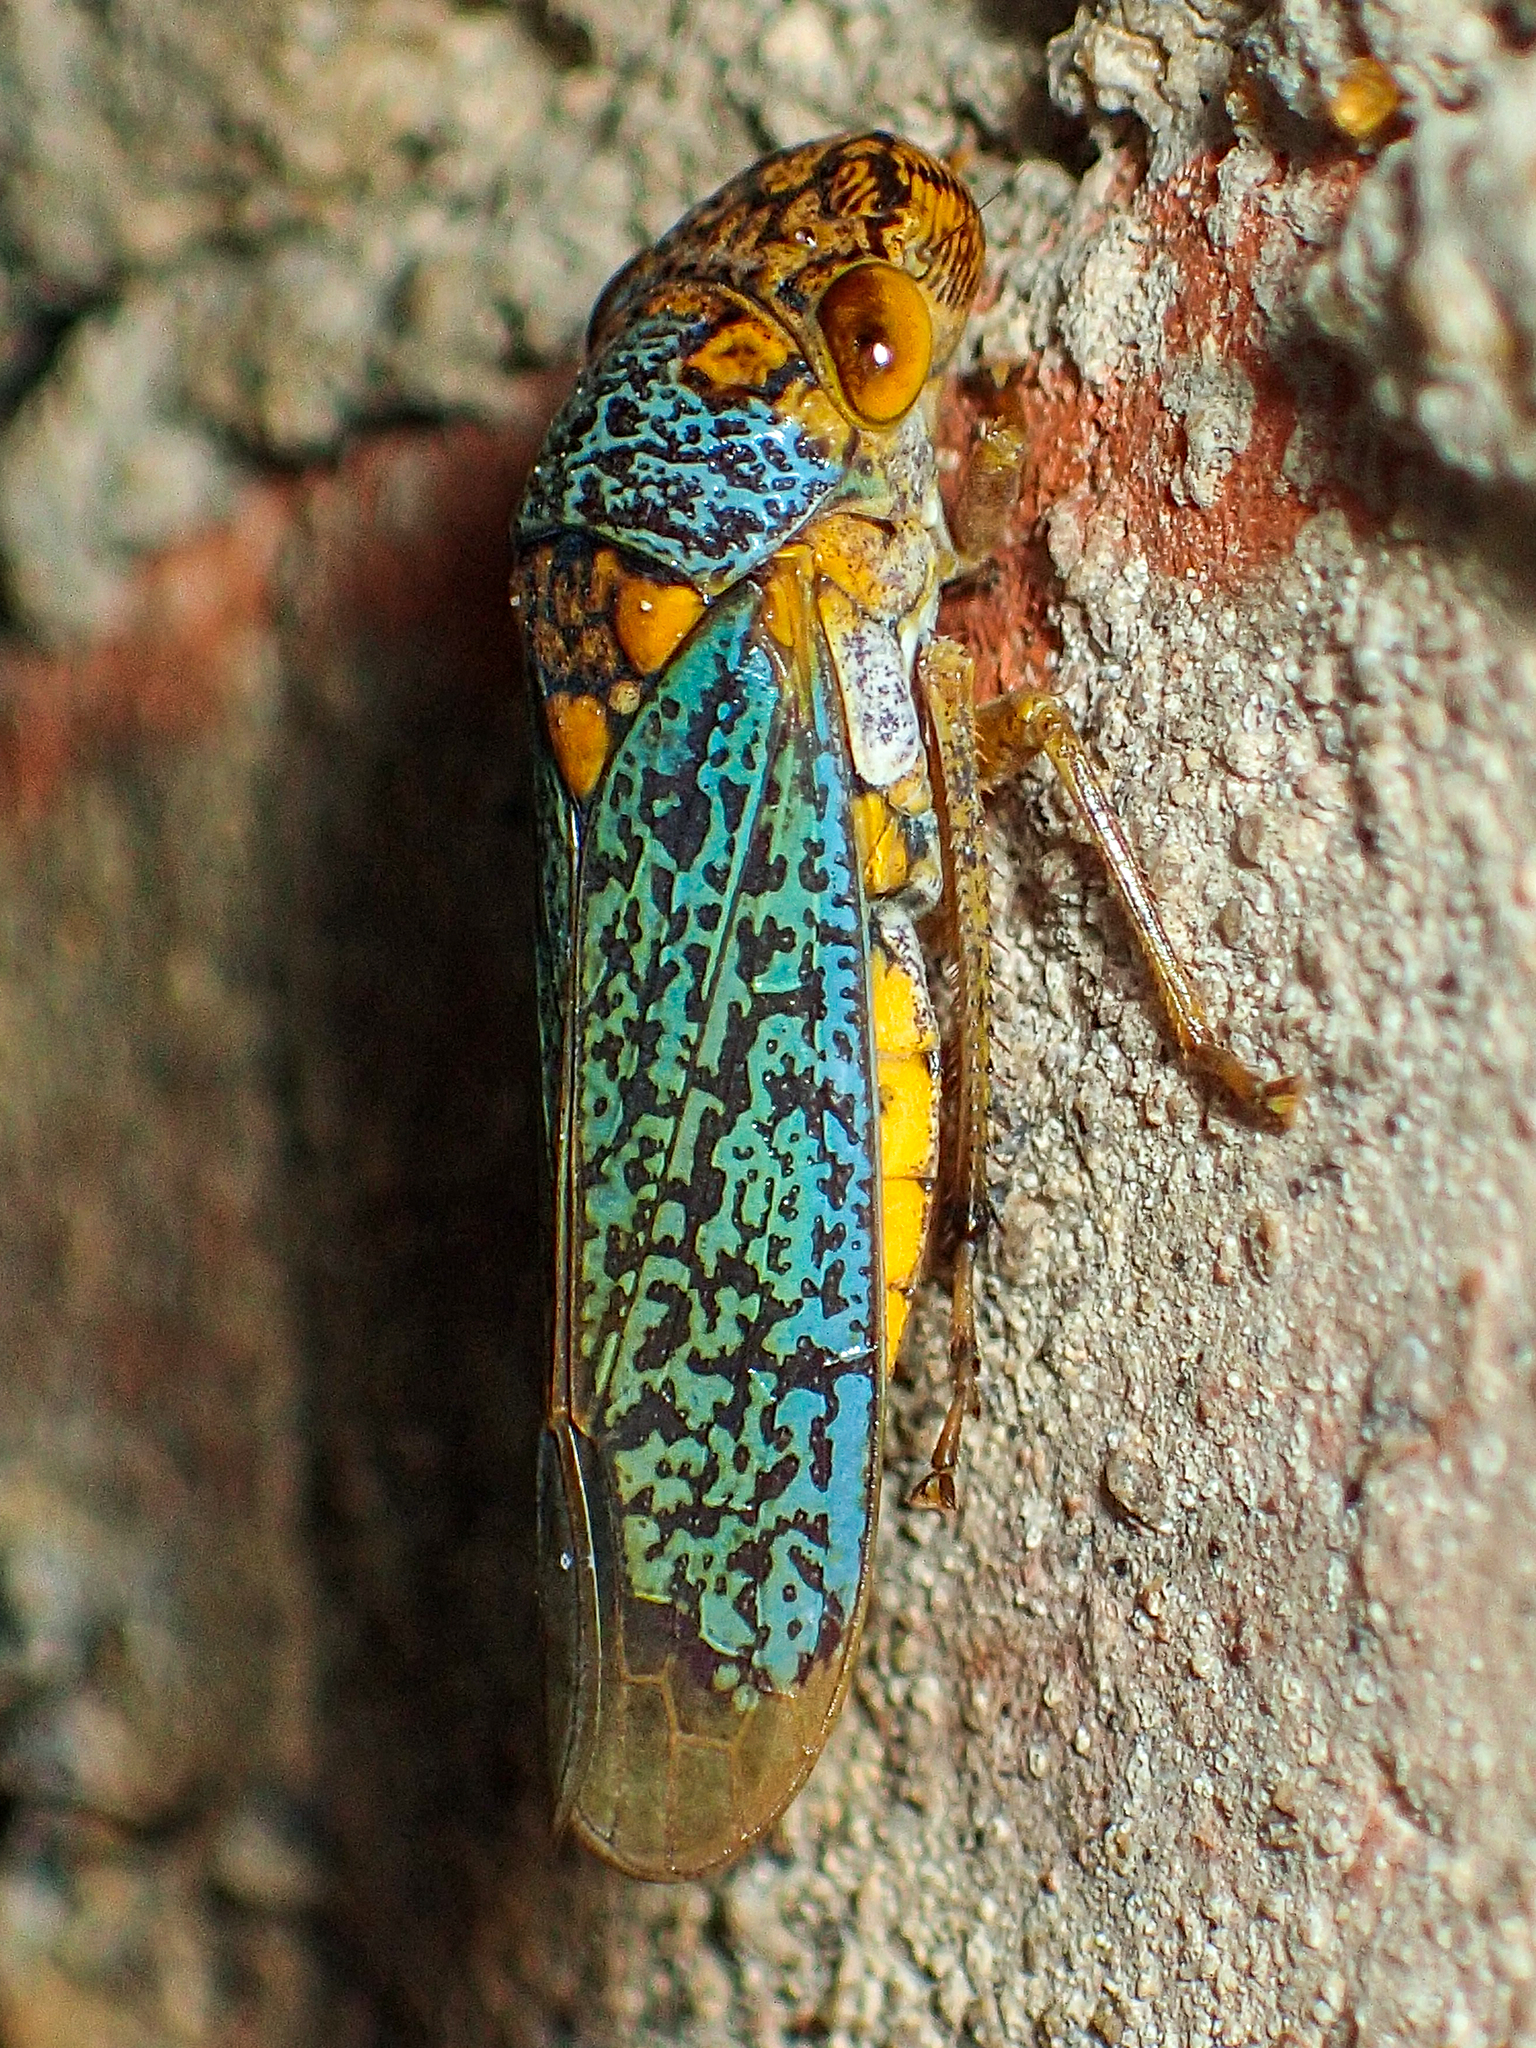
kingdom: Animalia
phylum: Arthropoda
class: Insecta
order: Hemiptera
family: Cicadellidae
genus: Oncometopia
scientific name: Oncometopia orbona
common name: Broad-headed sharpshooter
